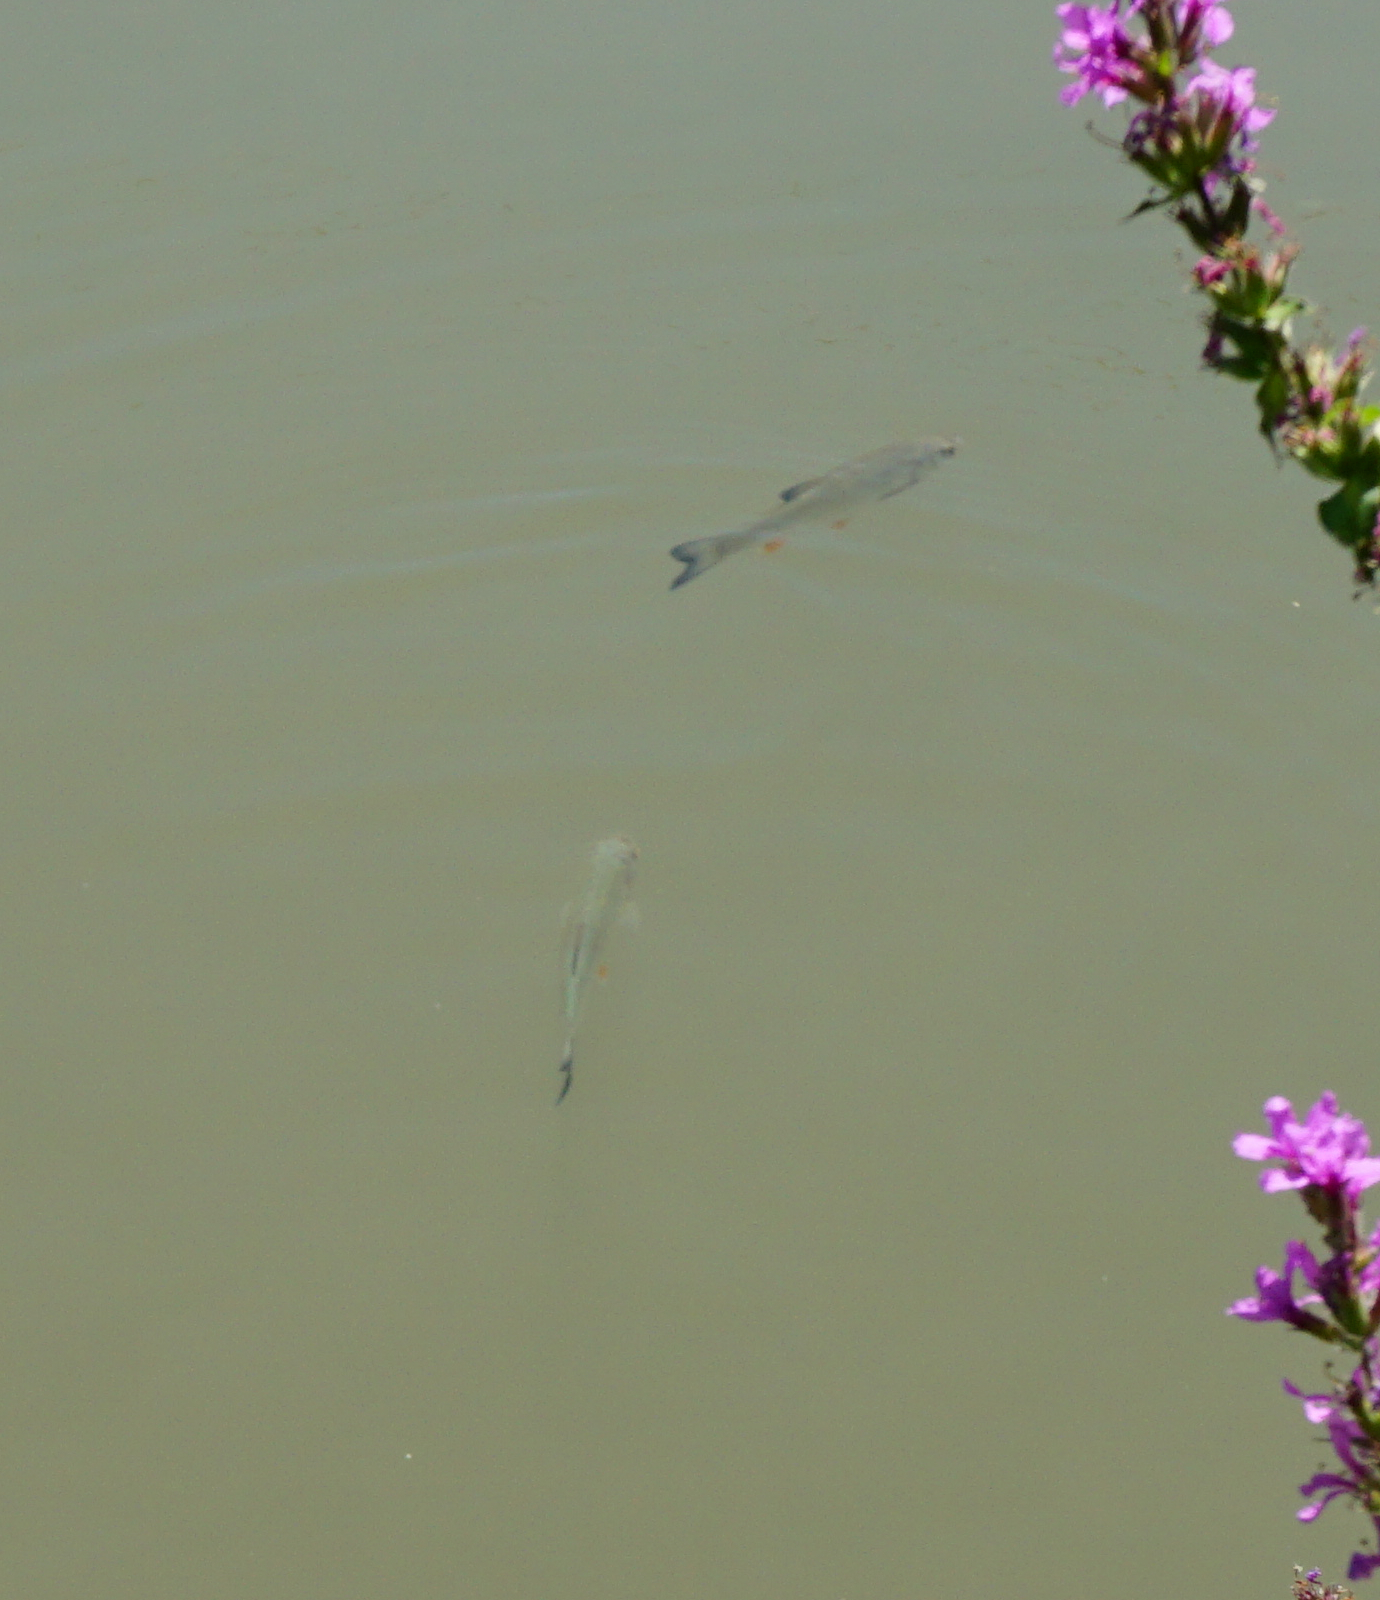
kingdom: Animalia
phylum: Chordata
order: Cypriniformes
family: Cyprinidae
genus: Squalius
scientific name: Squalius cephalus
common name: Chub
